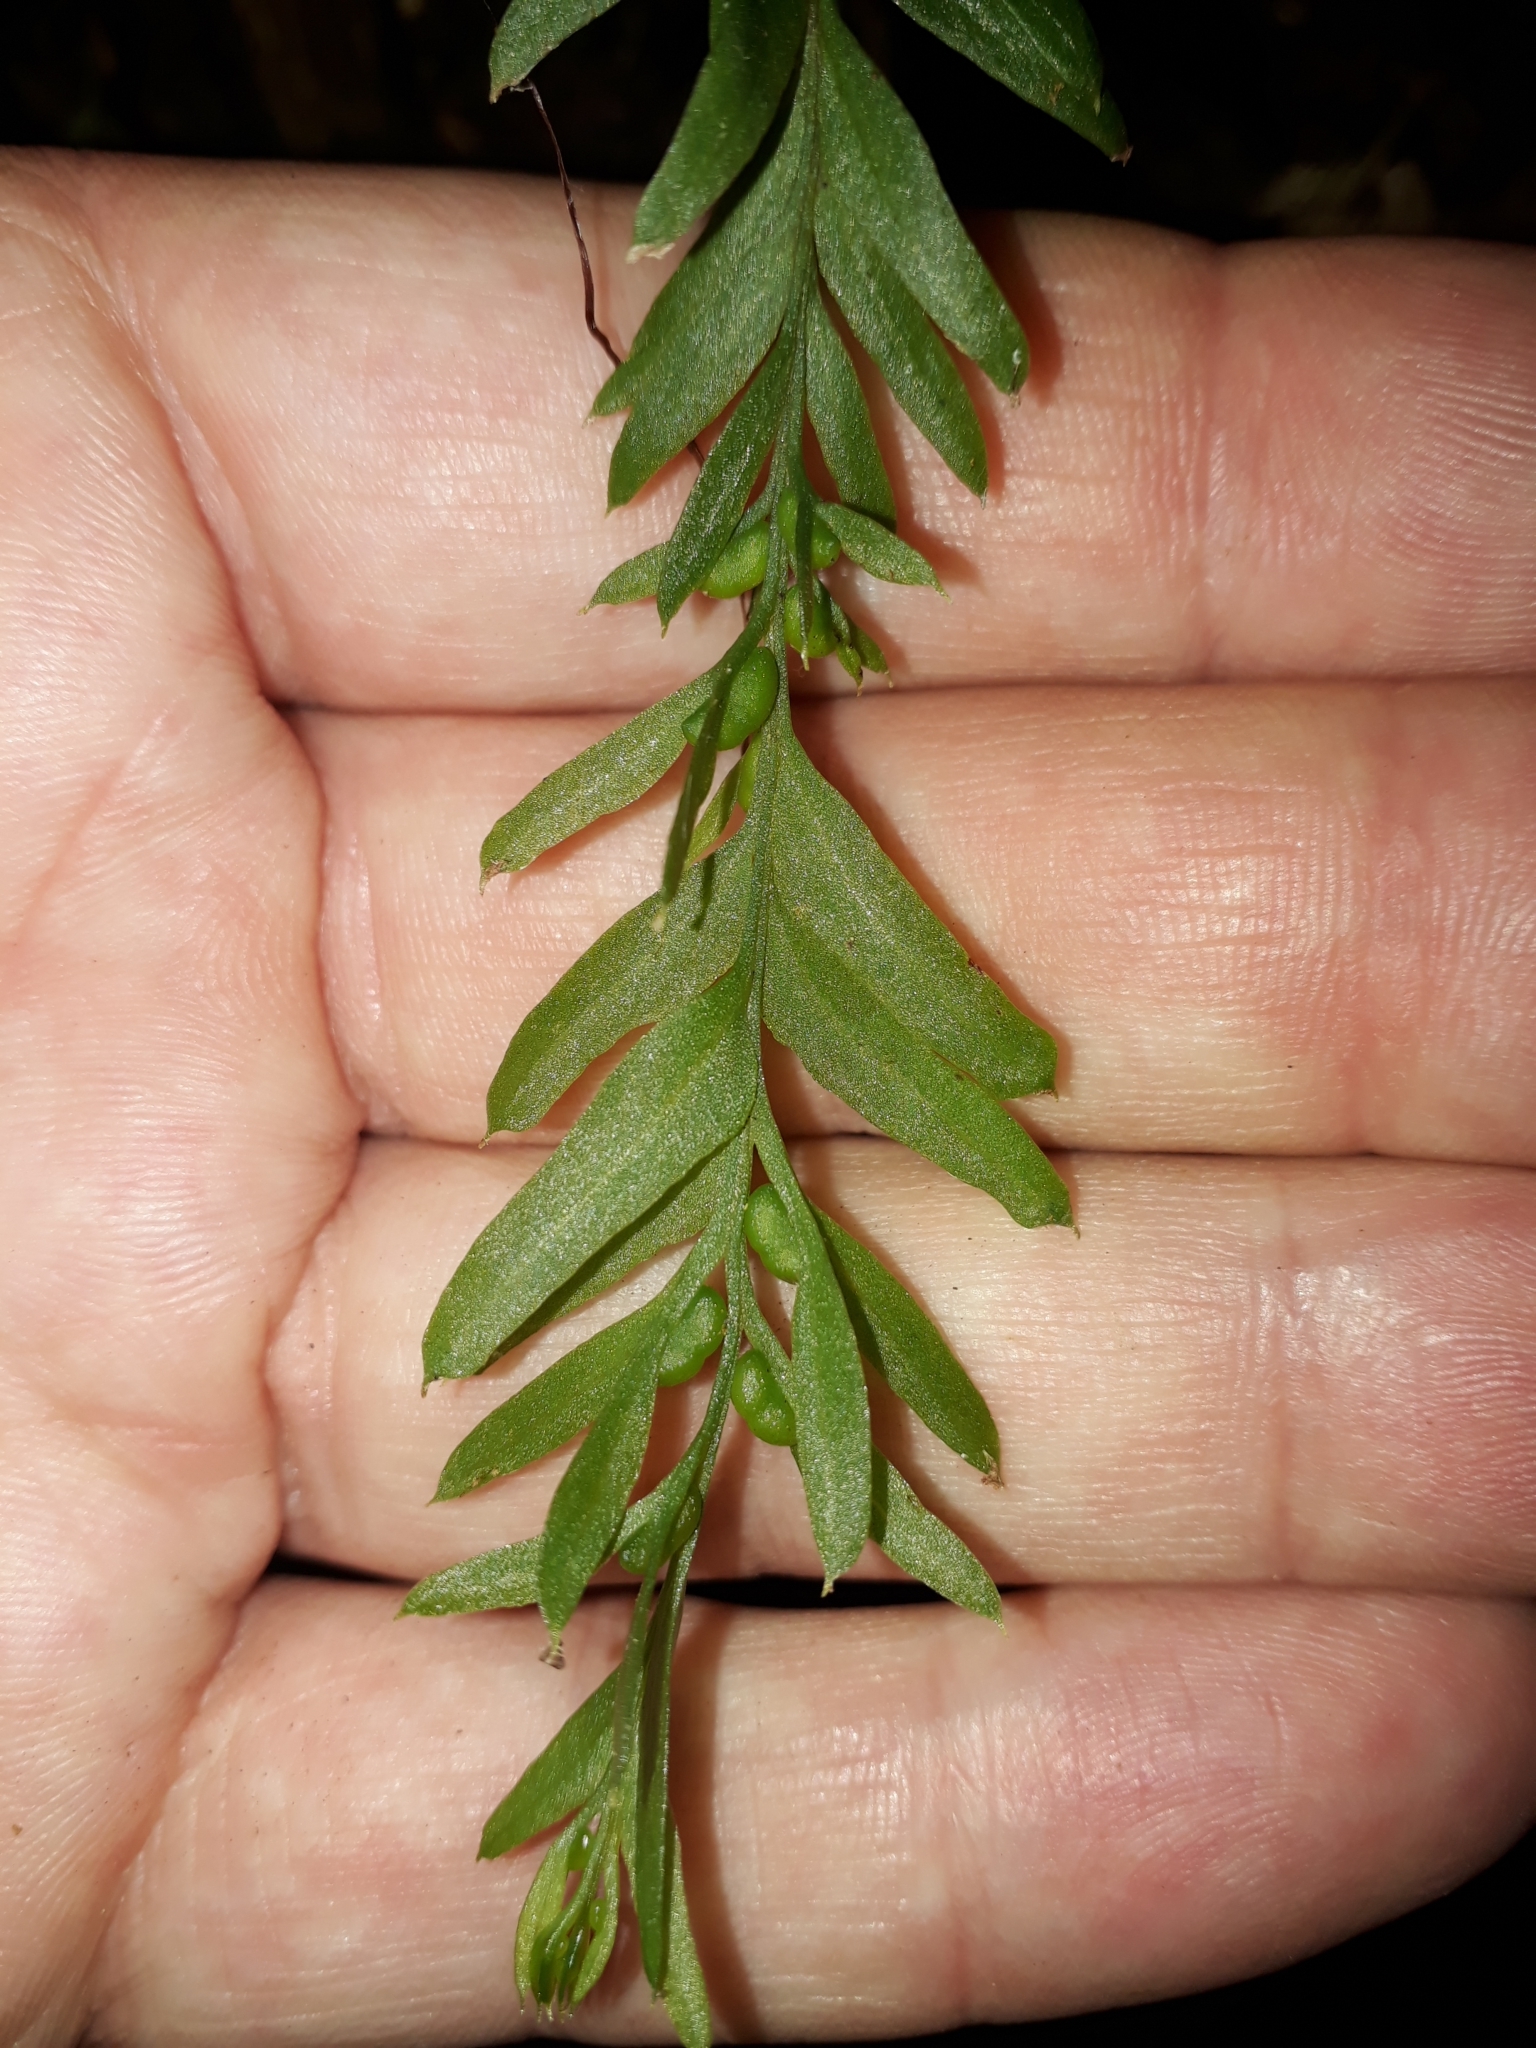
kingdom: Plantae
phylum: Tracheophyta
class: Polypodiopsida
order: Psilotales
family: Psilotaceae
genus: Tmesipteris
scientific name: Tmesipteris elongata
